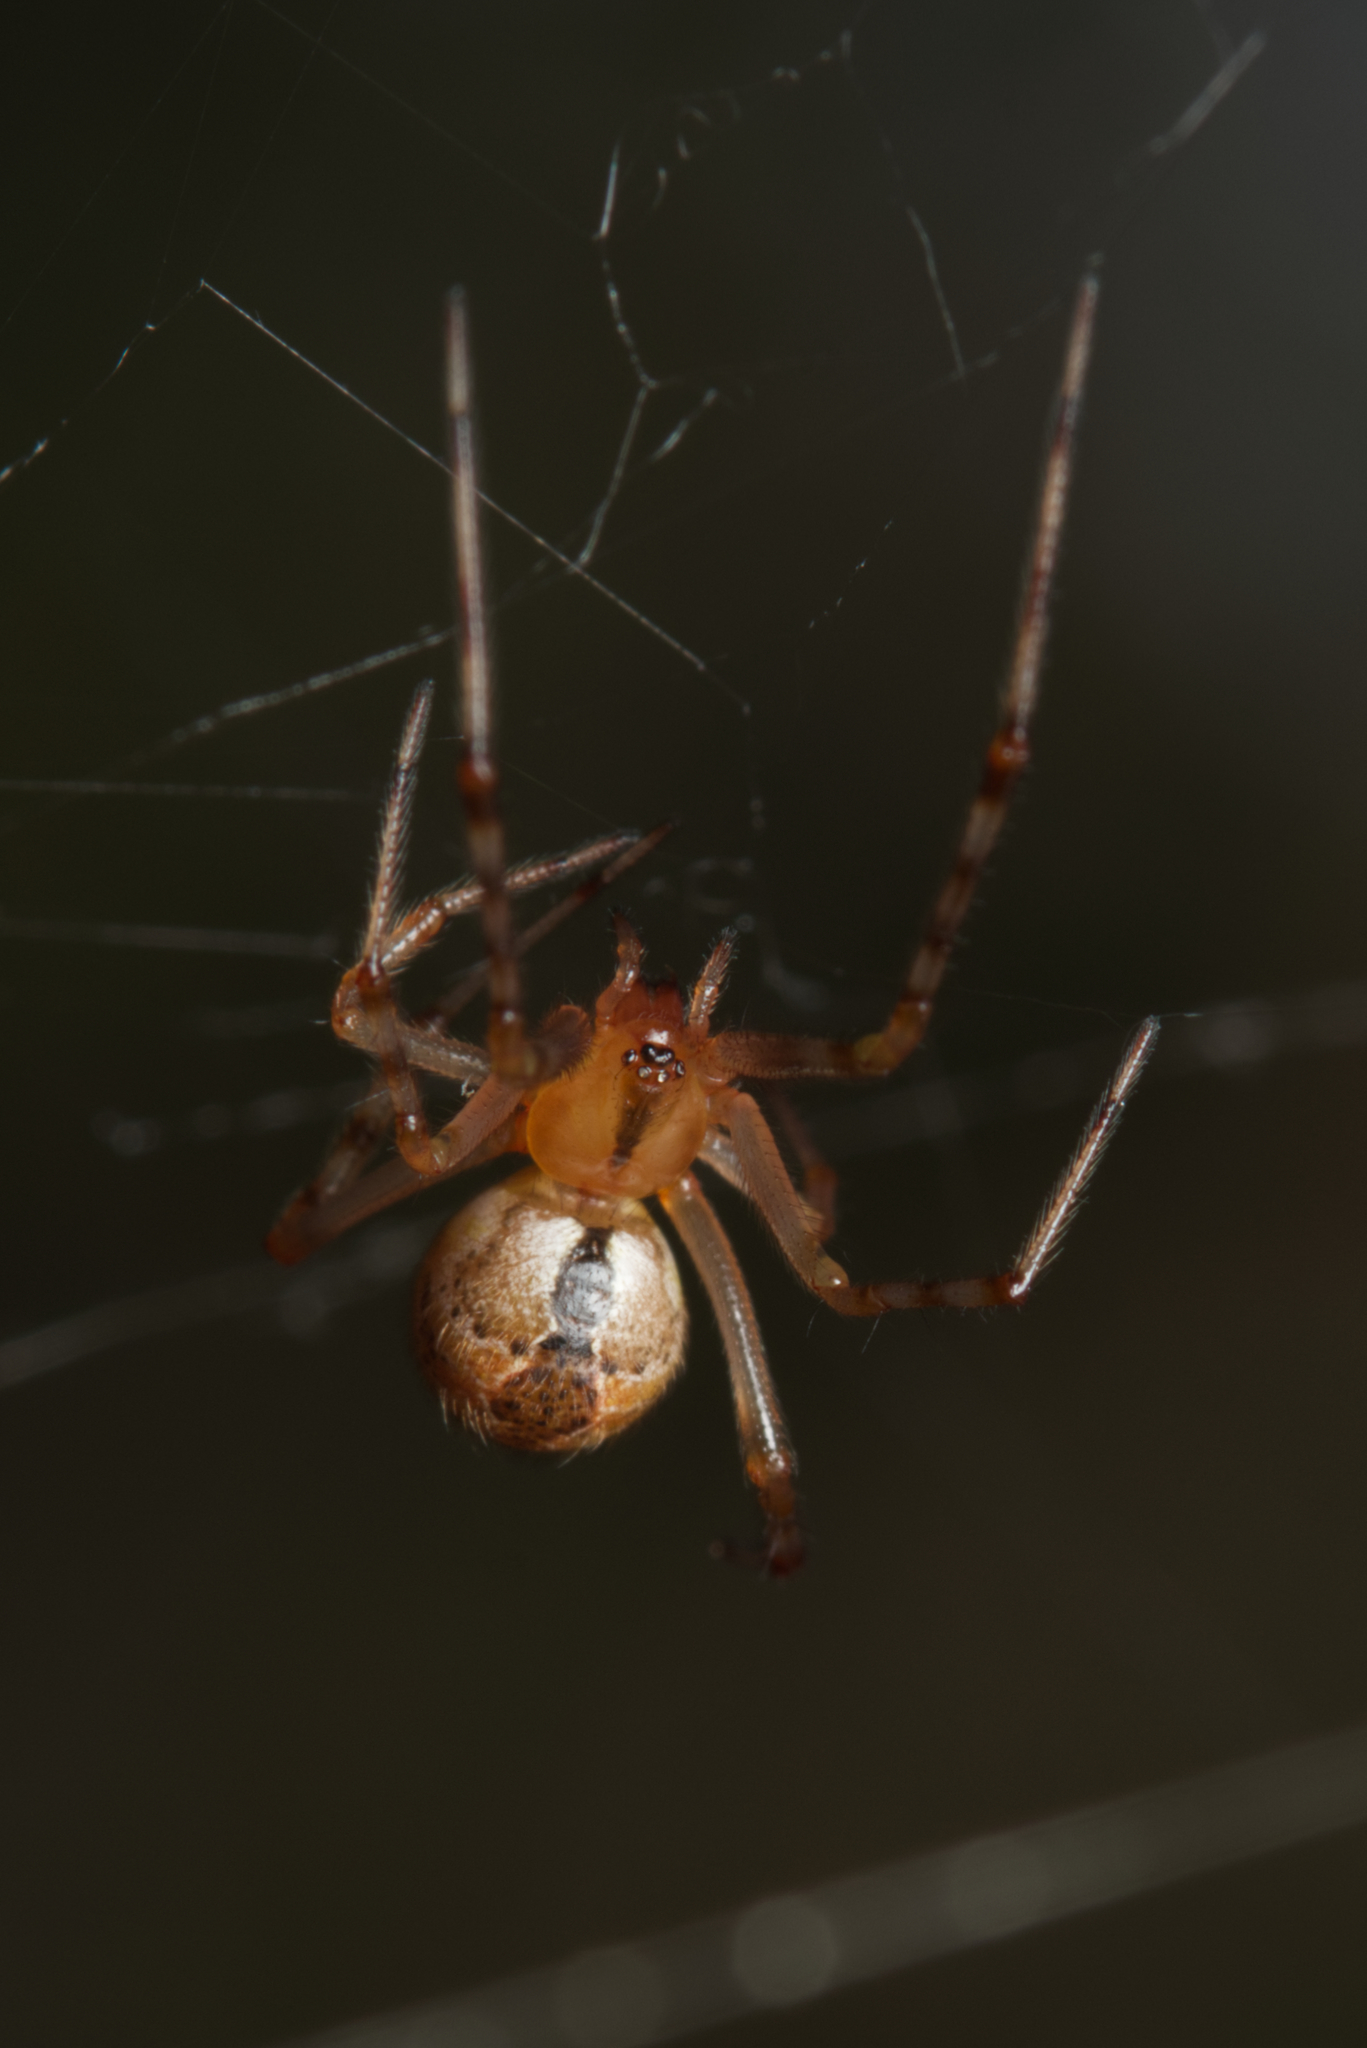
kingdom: Animalia
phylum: Arthropoda
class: Arachnida
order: Araneae
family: Theridiidae
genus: Cryptachaea
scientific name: Cryptachaea veruculata
